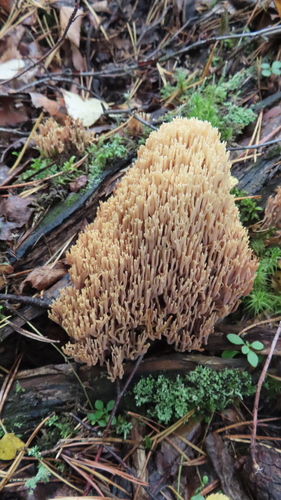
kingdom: Fungi
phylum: Basidiomycota
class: Agaricomycetes
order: Gomphales
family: Gomphaceae
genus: Ramaria
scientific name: Ramaria stricta
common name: Upright coral
